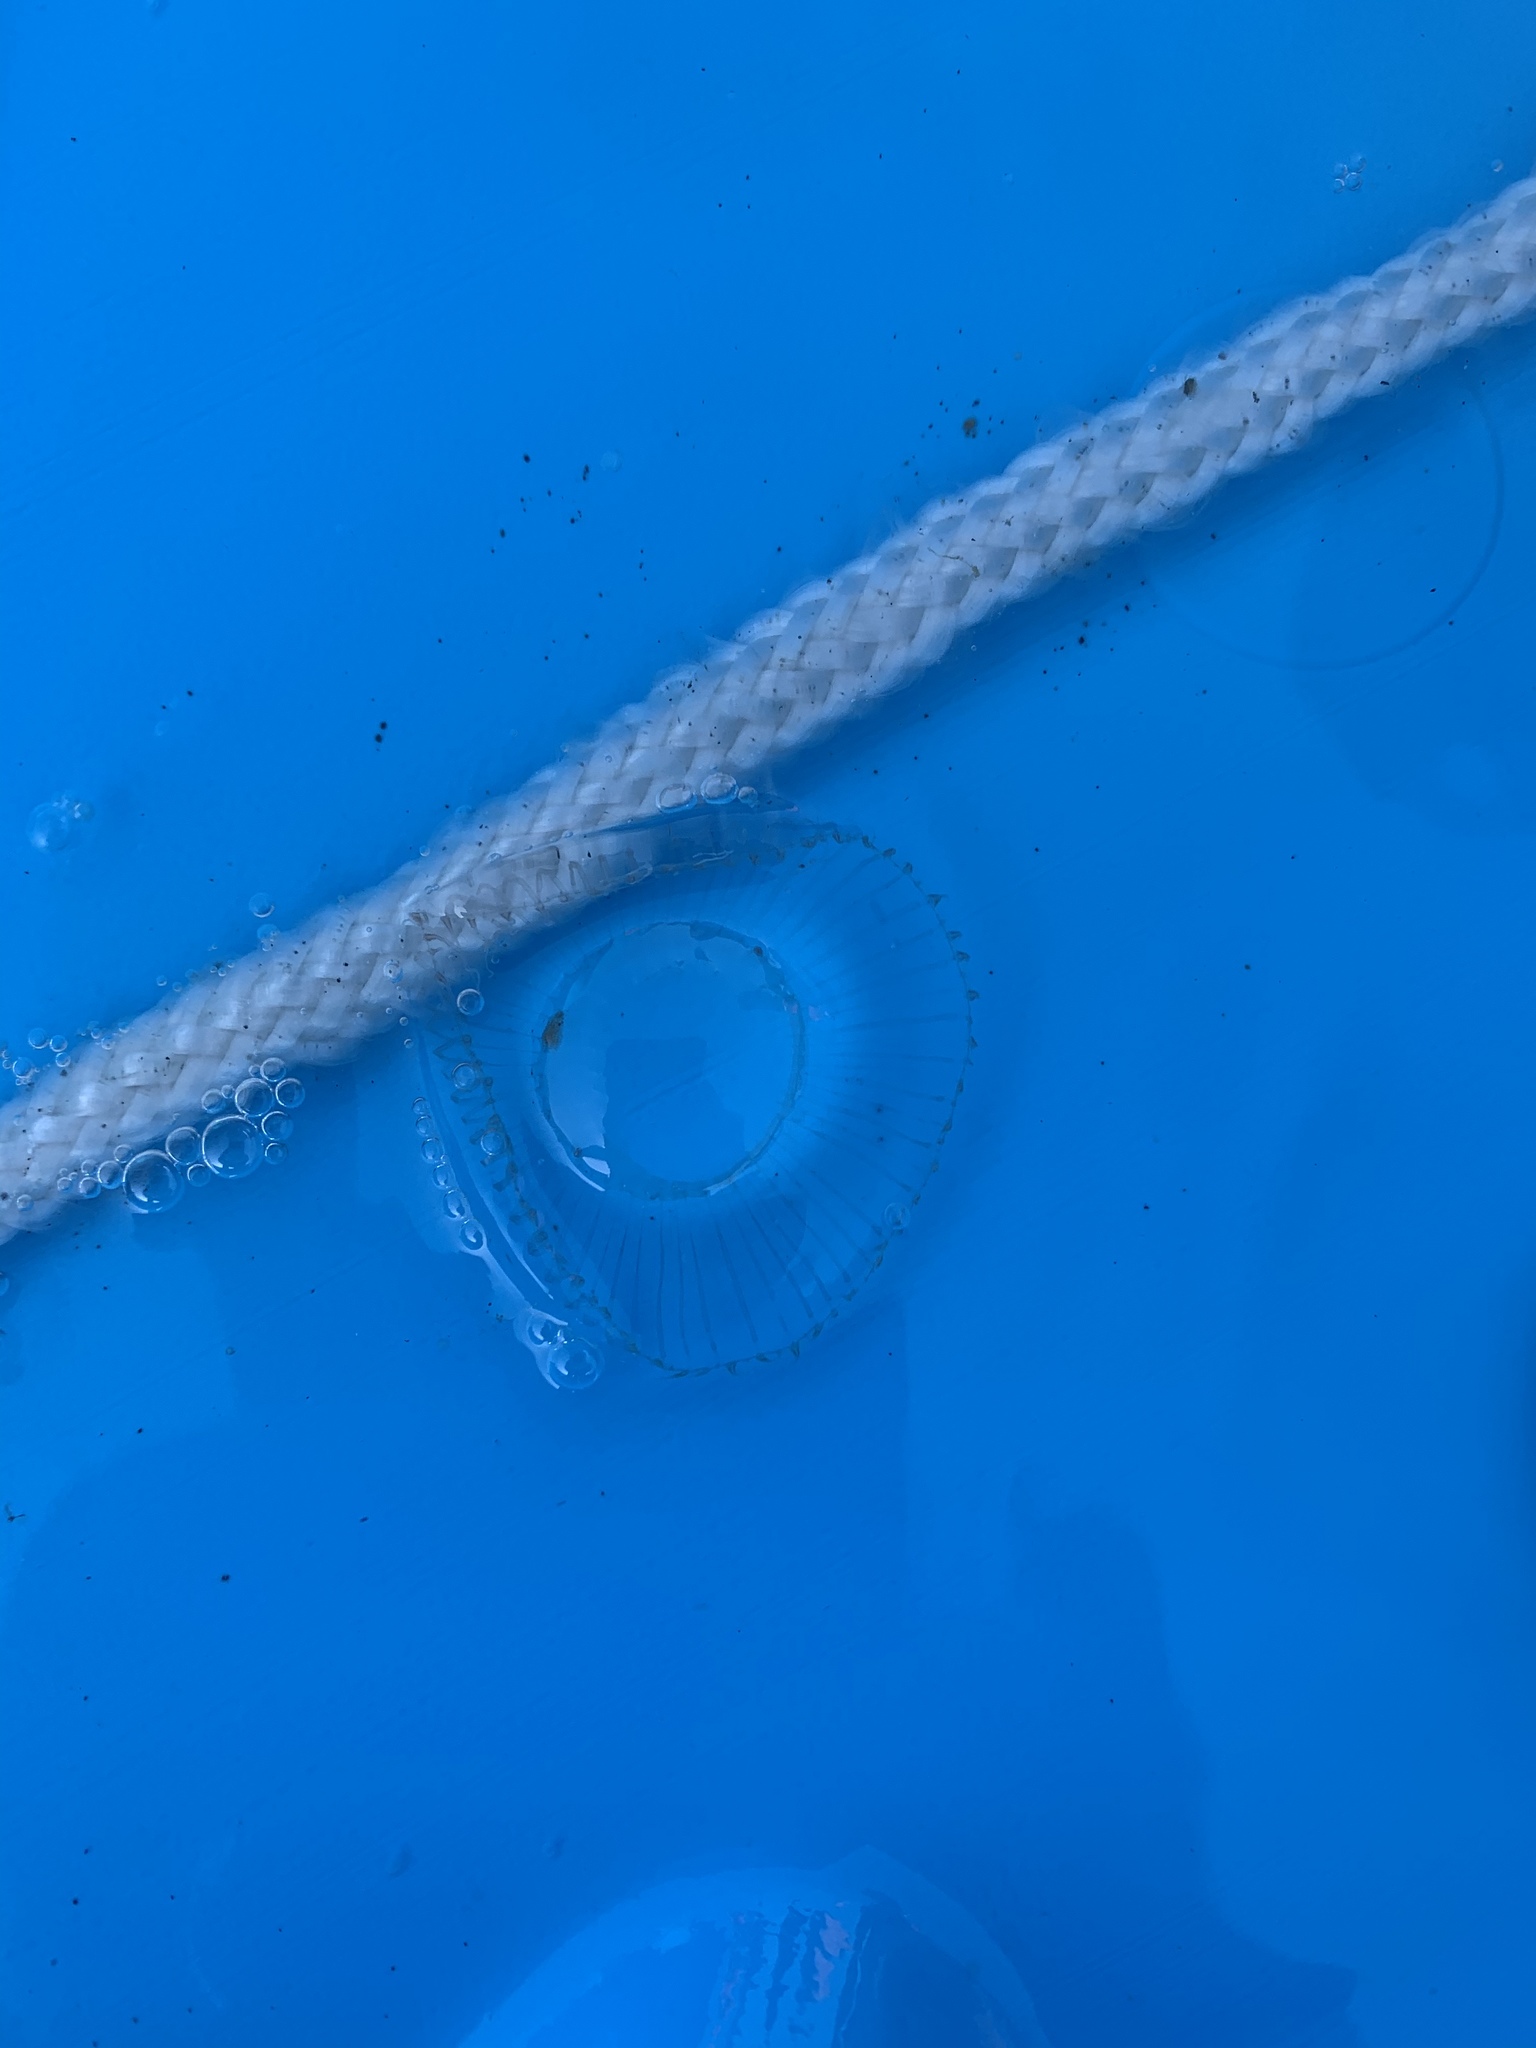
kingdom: Animalia
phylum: Cnidaria
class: Hydrozoa
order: Leptothecata
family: Aequoreidae
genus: Aequorea
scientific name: Aequorea victoria
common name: Water jellyfish
